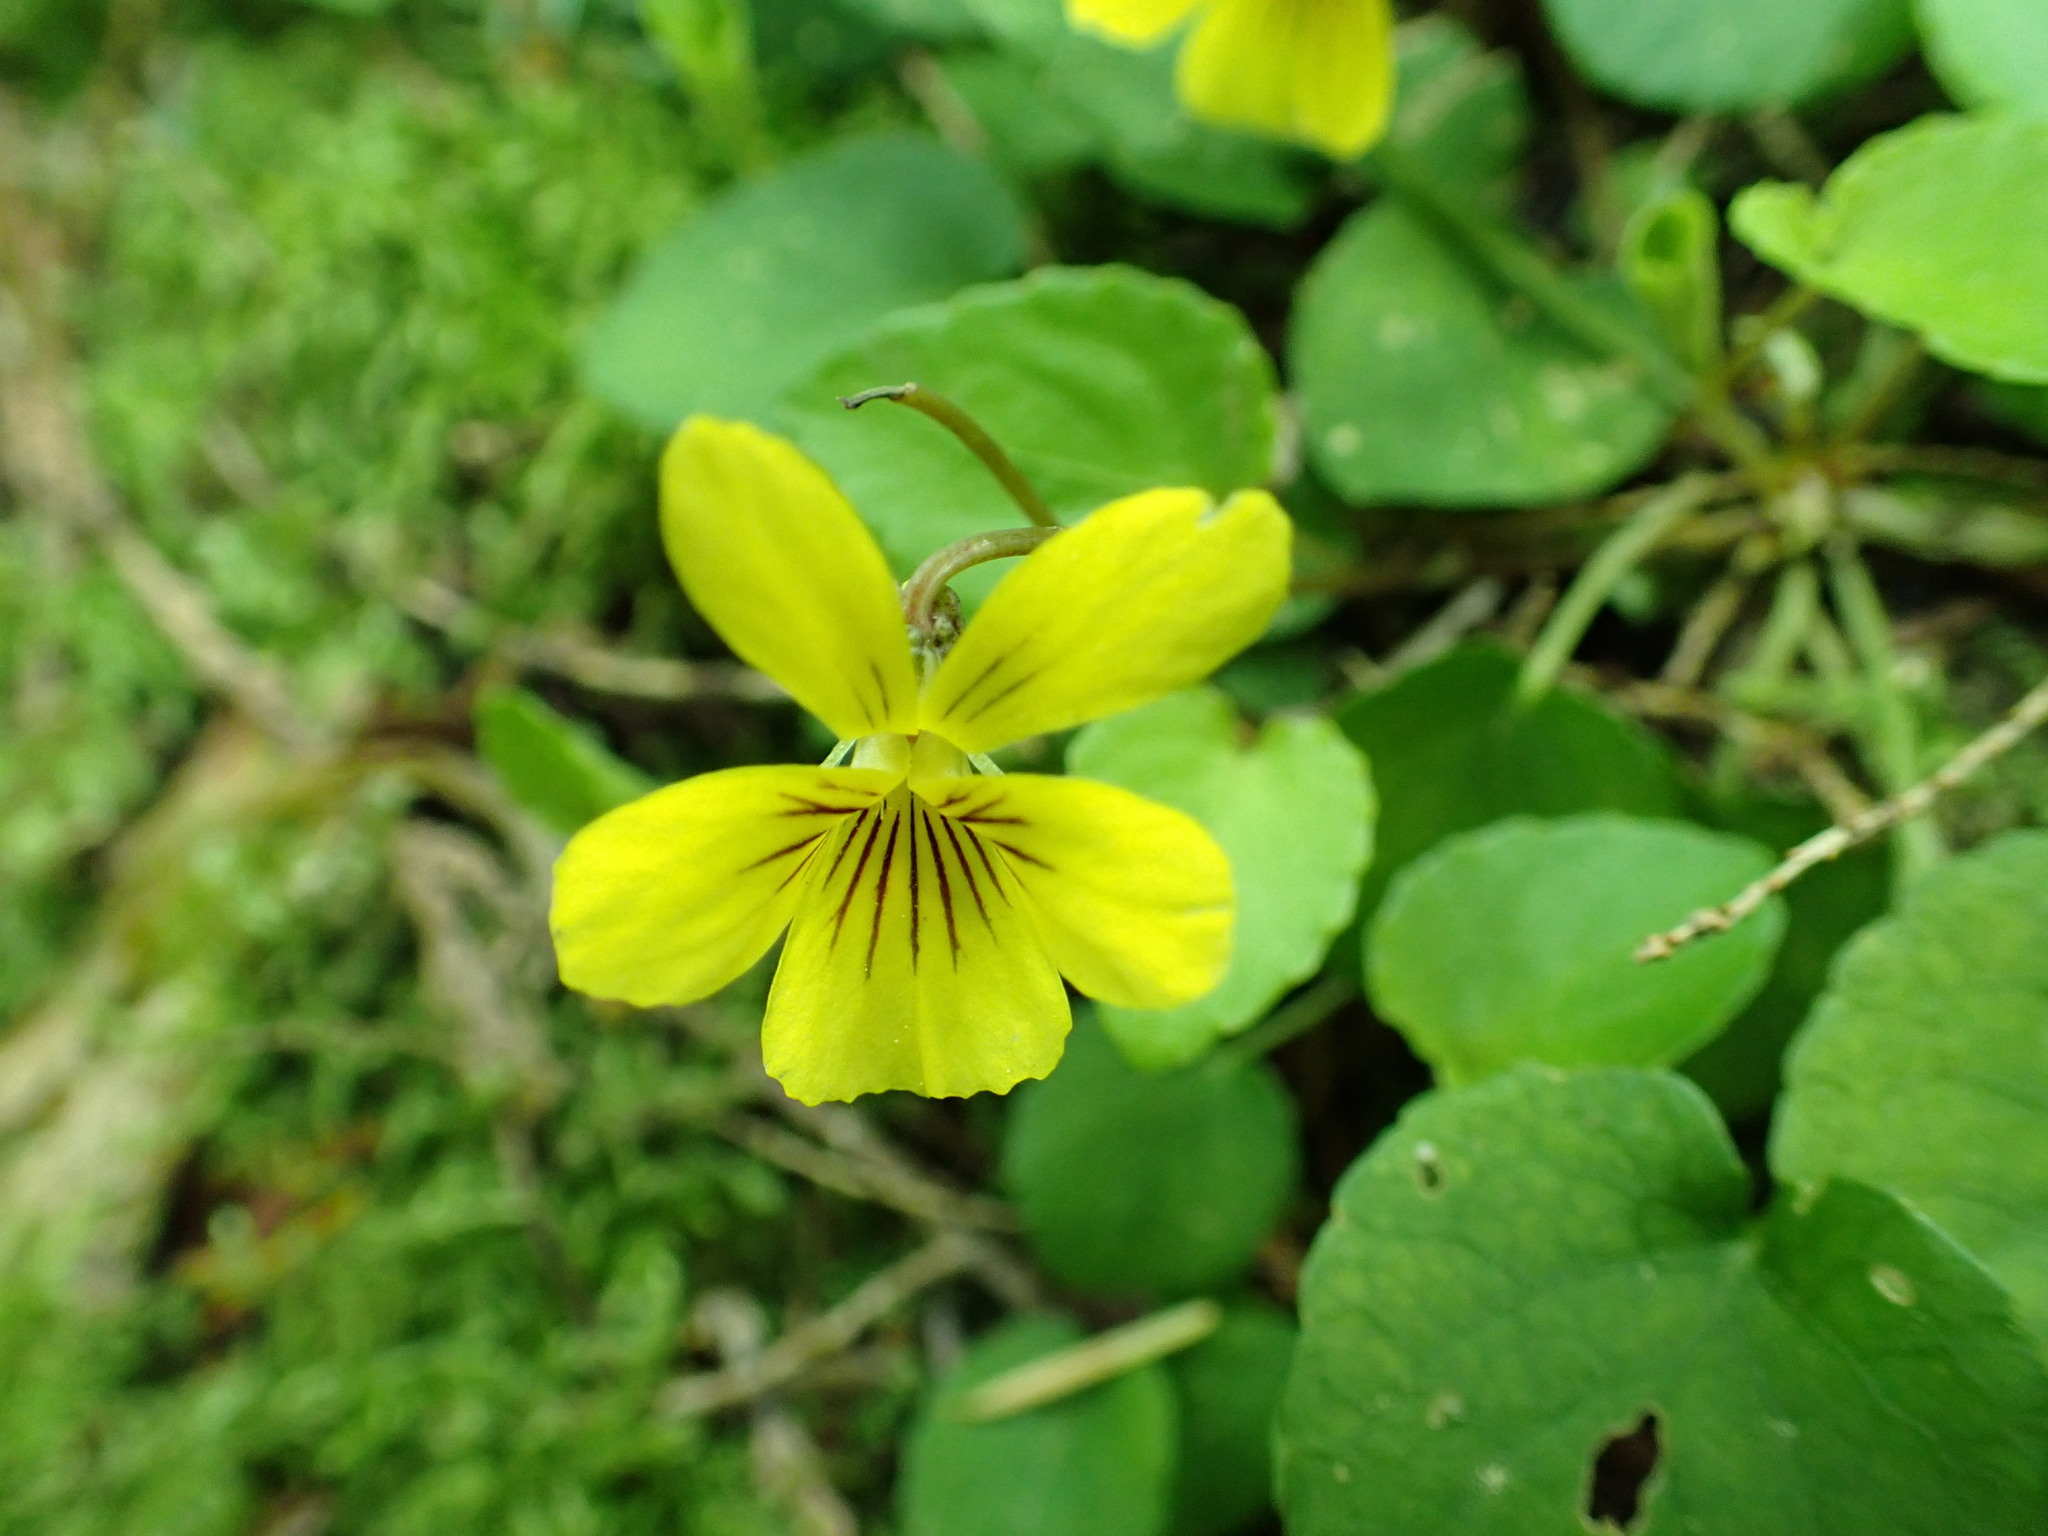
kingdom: Plantae
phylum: Tracheophyta
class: Magnoliopsida
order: Malpighiales
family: Violaceae
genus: Viola
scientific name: Viola sempervirens
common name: Evergreen violet
